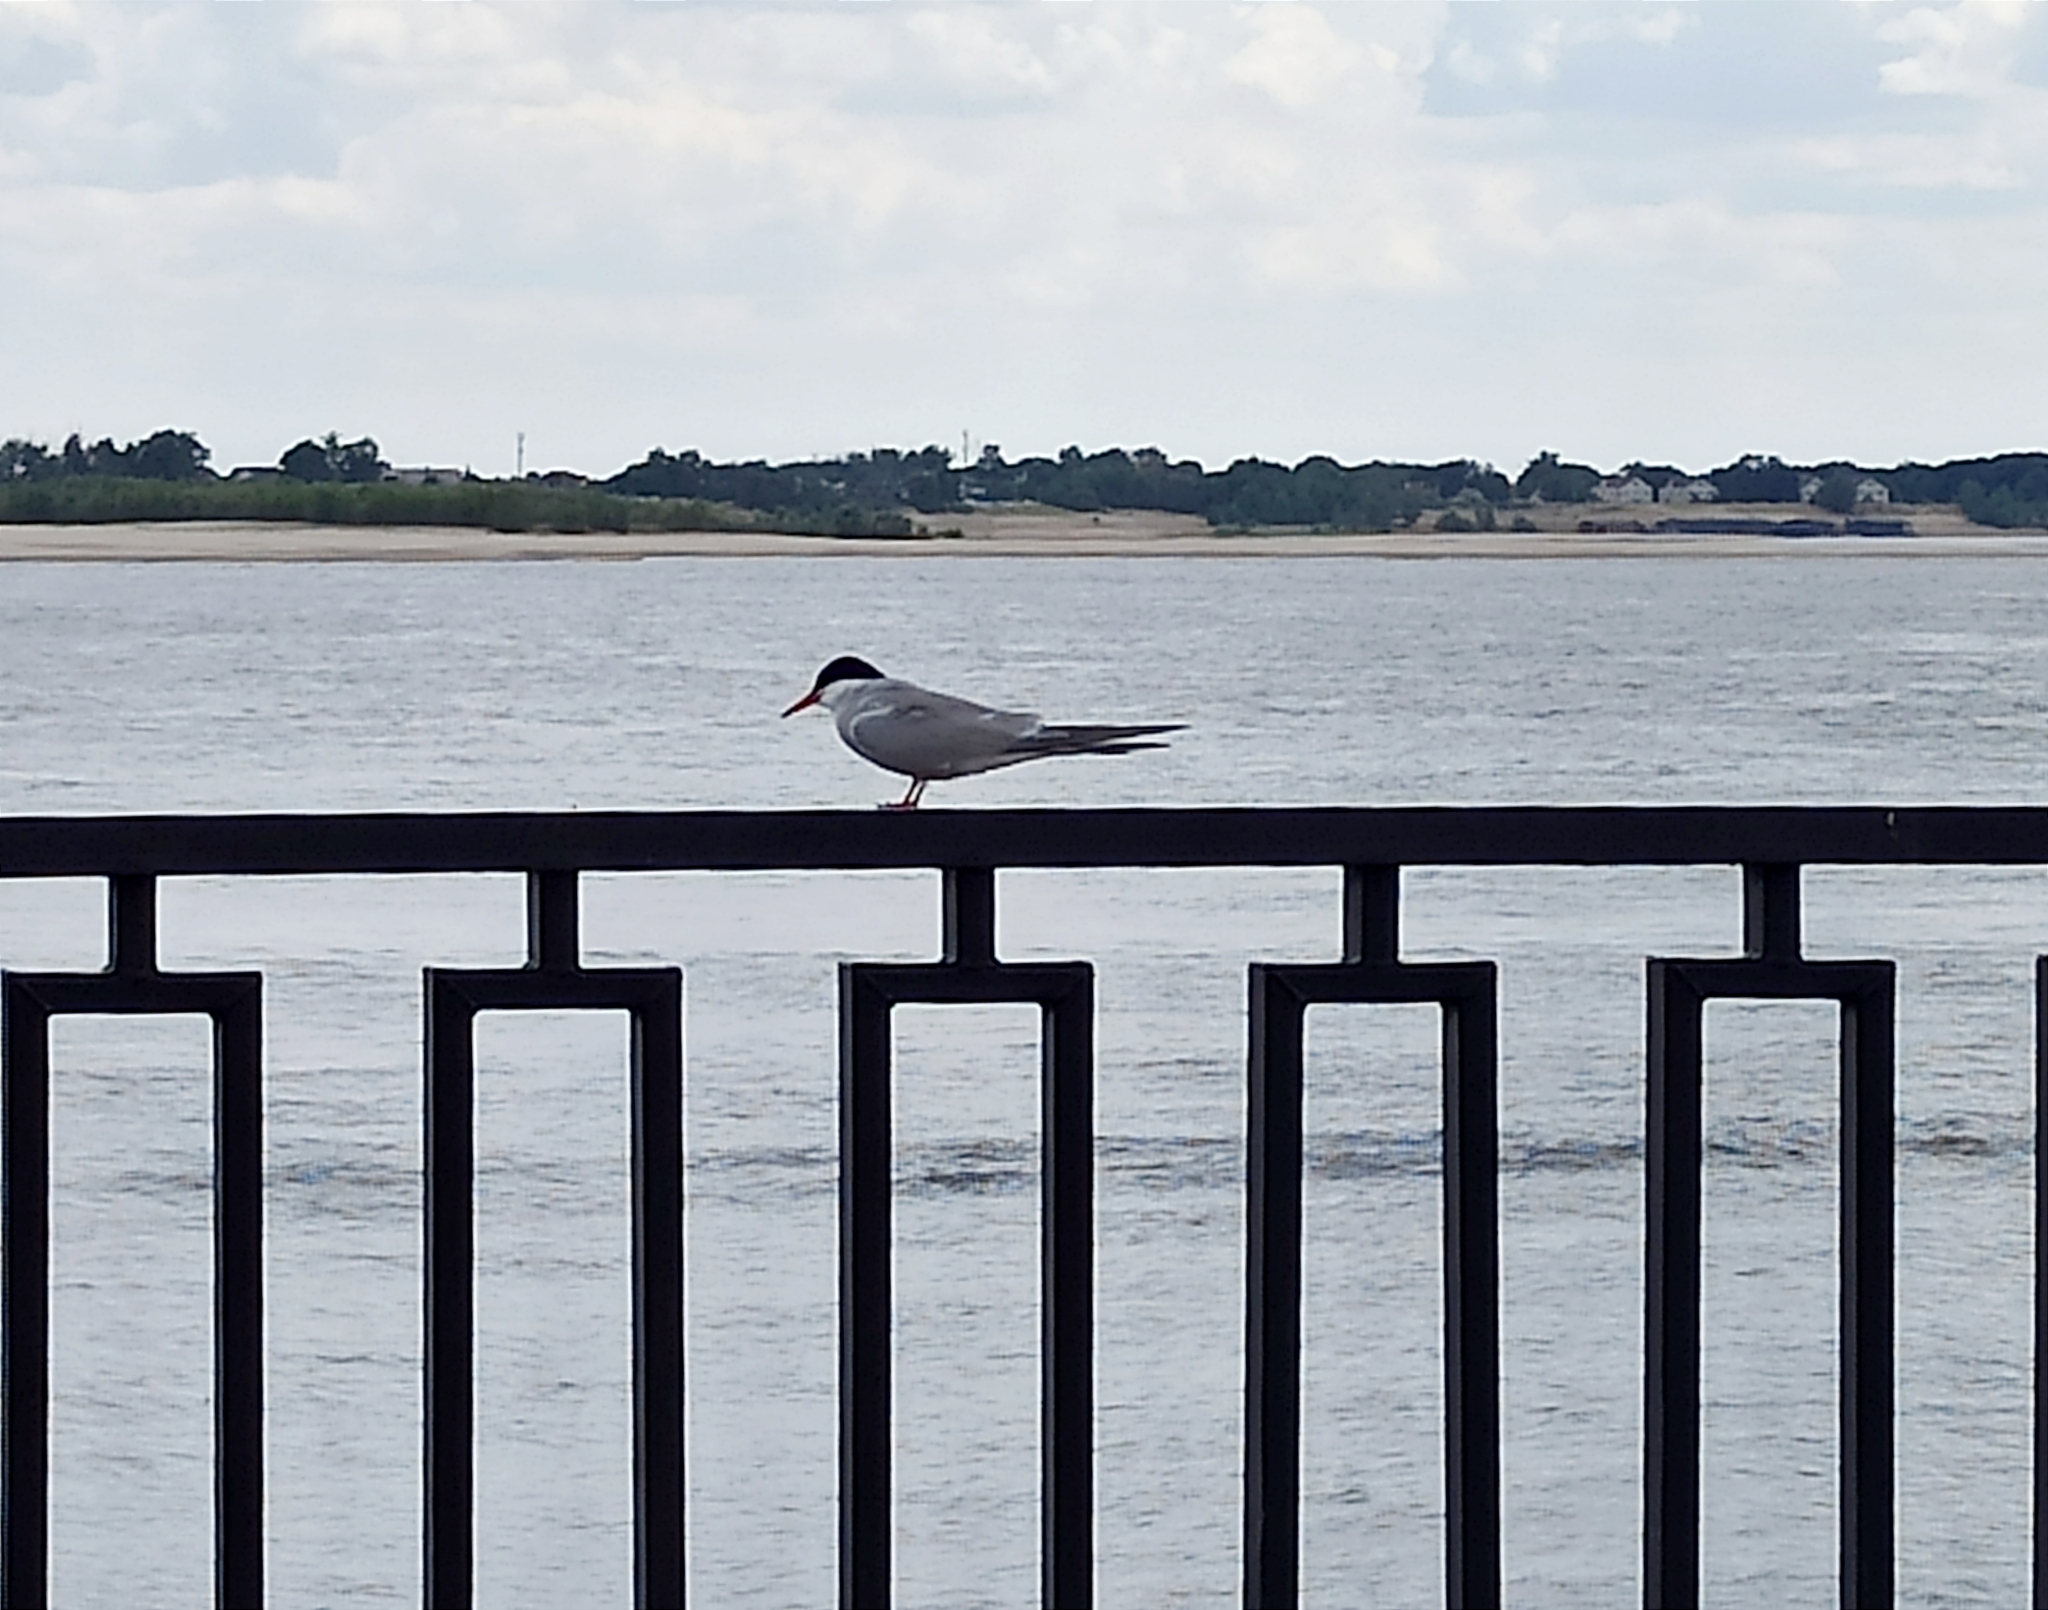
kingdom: Animalia
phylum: Chordata
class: Aves
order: Charadriiformes
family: Laridae
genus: Sterna
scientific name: Sterna hirundo
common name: Common tern
